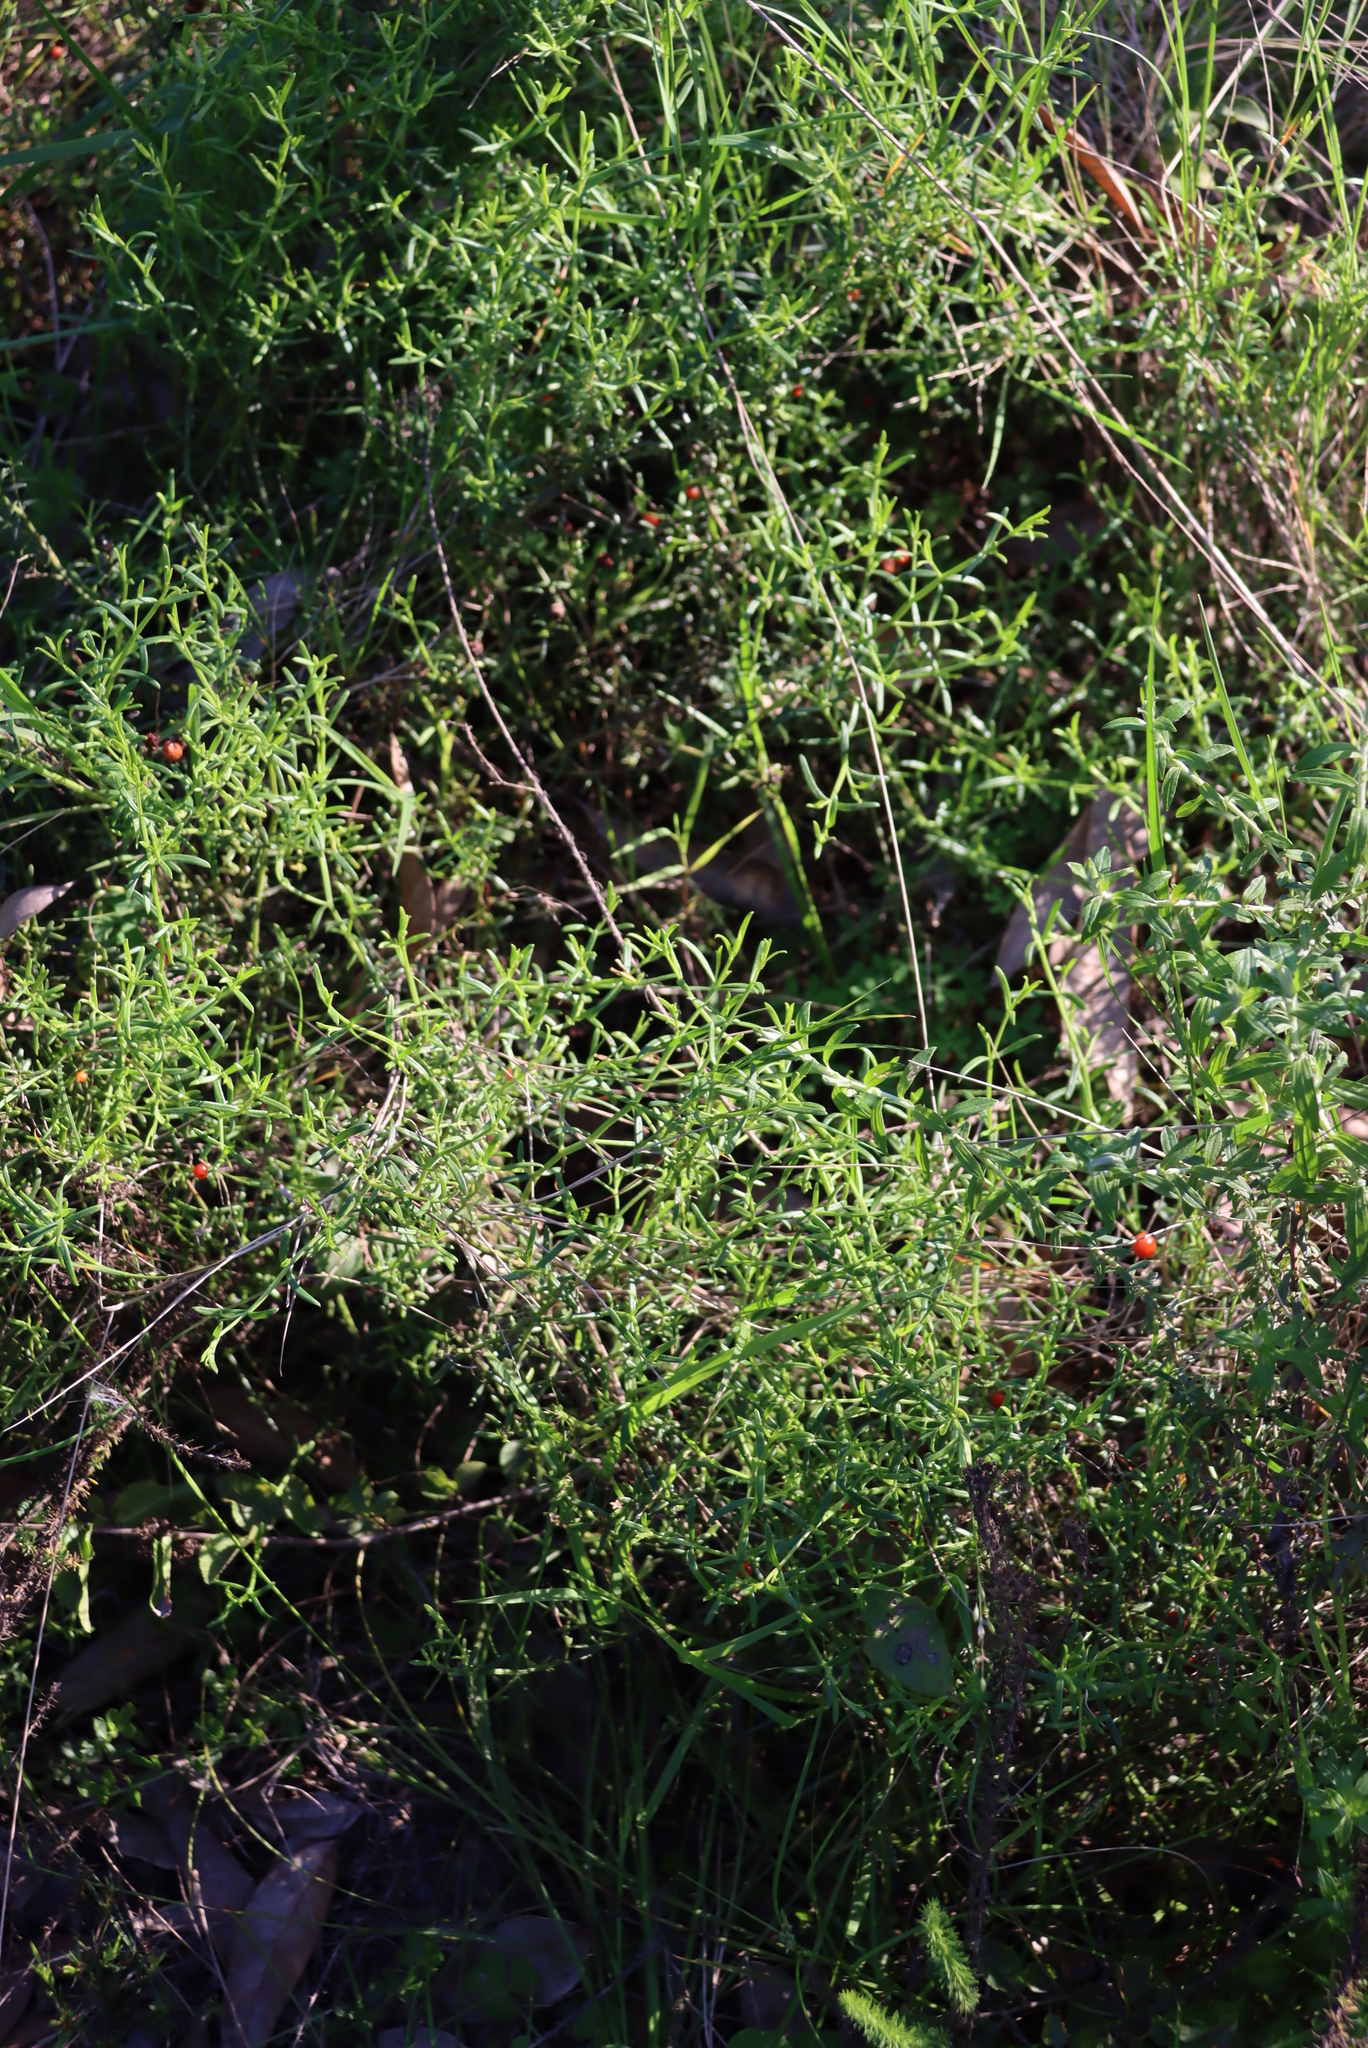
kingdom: Plantae
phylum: Tracheophyta
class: Magnoliopsida
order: Gentianales
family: Gentianaceae
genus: Chironia
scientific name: Chironia baccifera
